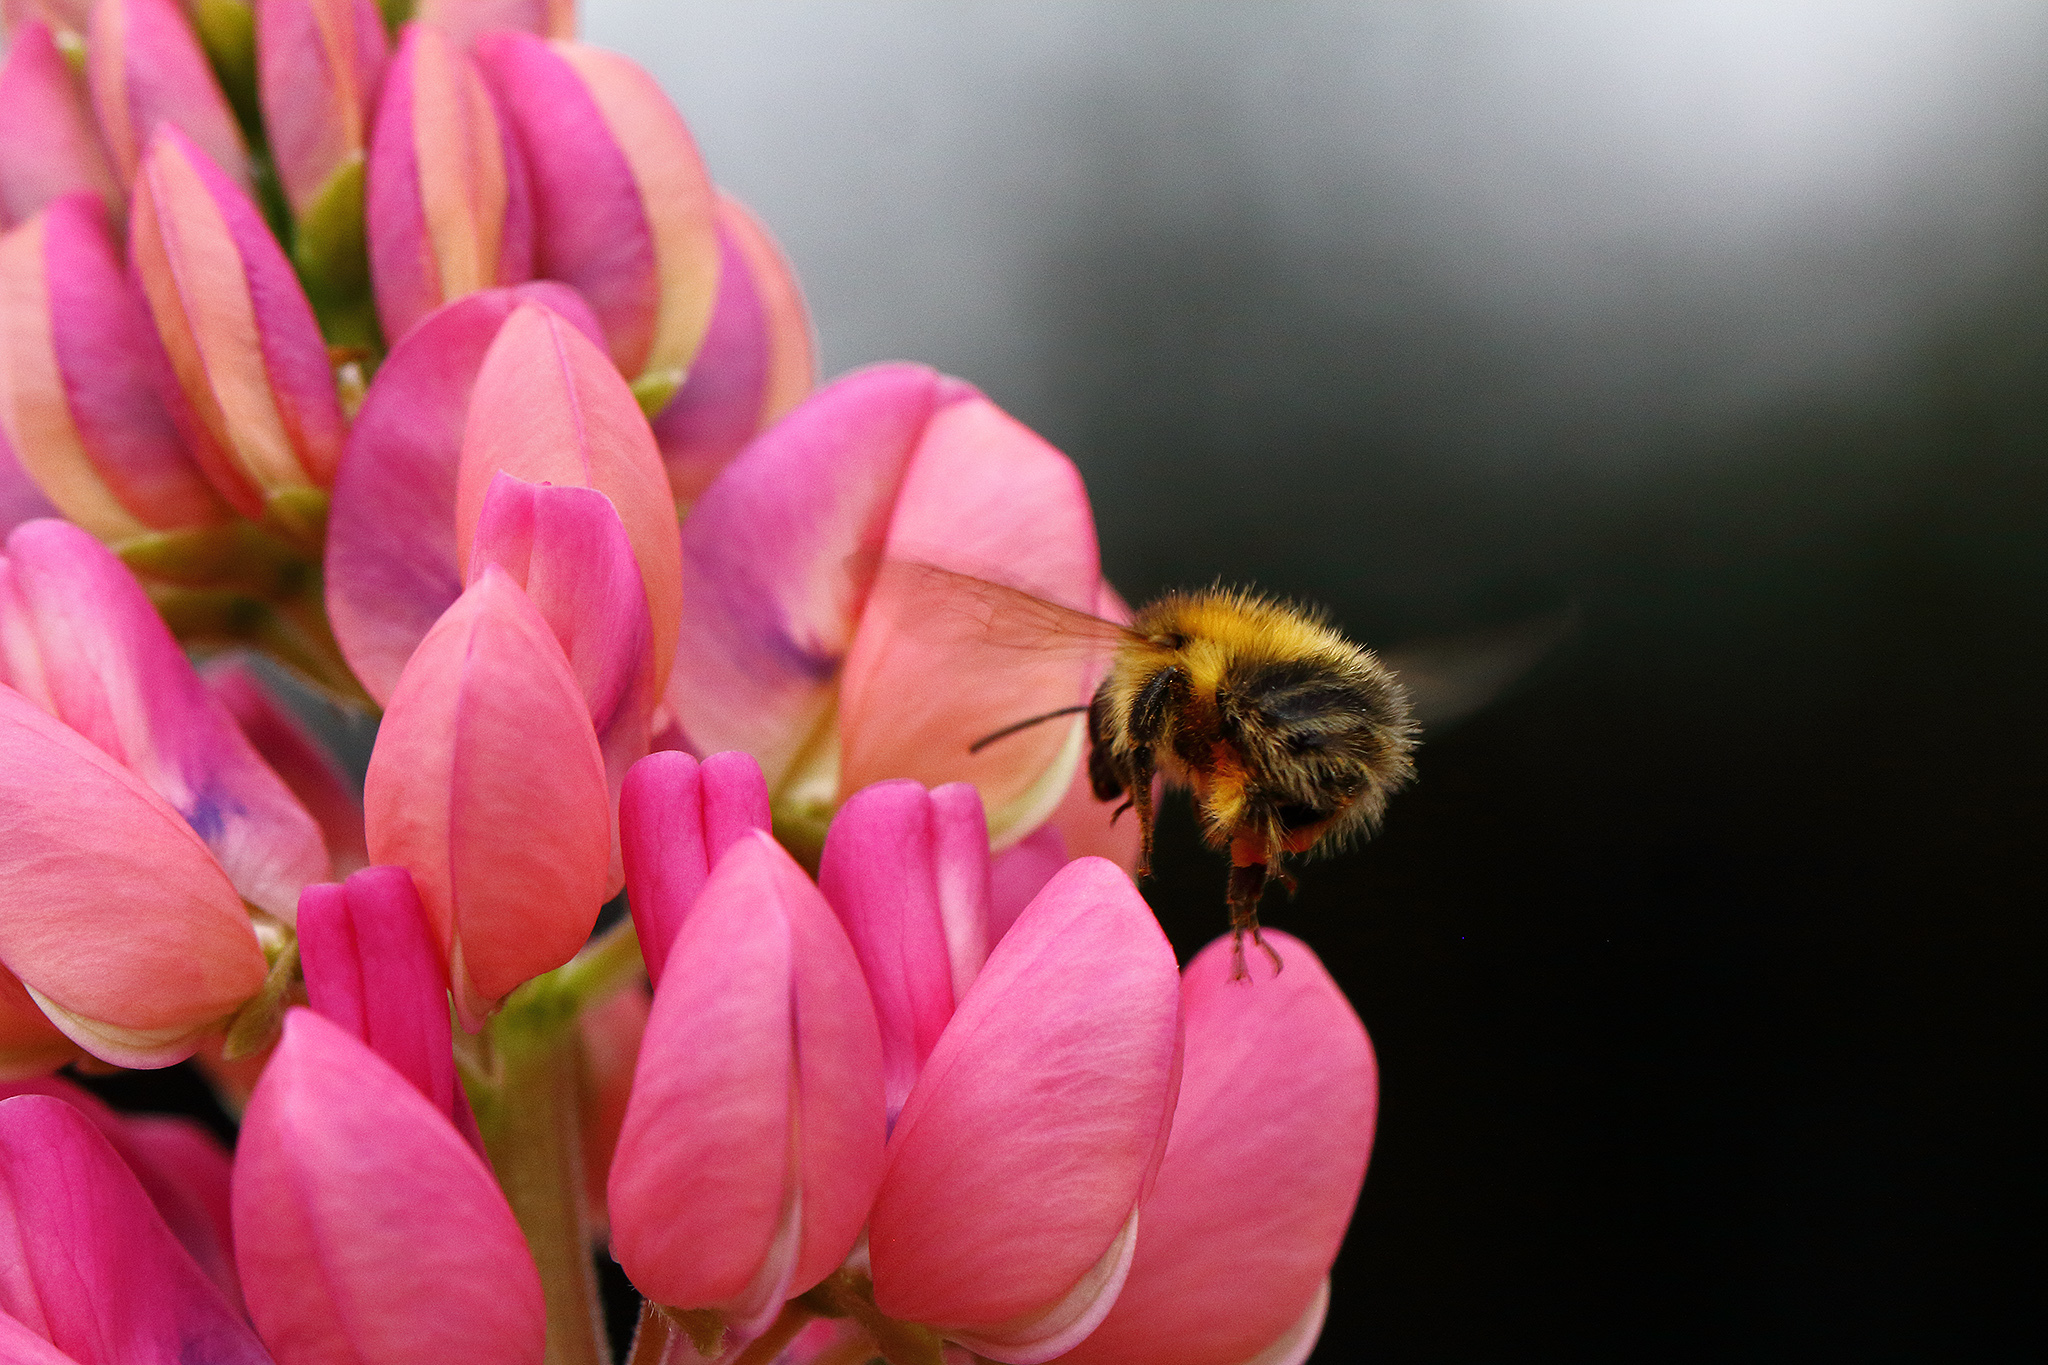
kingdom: Animalia
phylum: Arthropoda
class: Insecta
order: Hymenoptera
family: Apidae
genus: Bombus
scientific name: Bombus pascuorum
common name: Common carder bee
